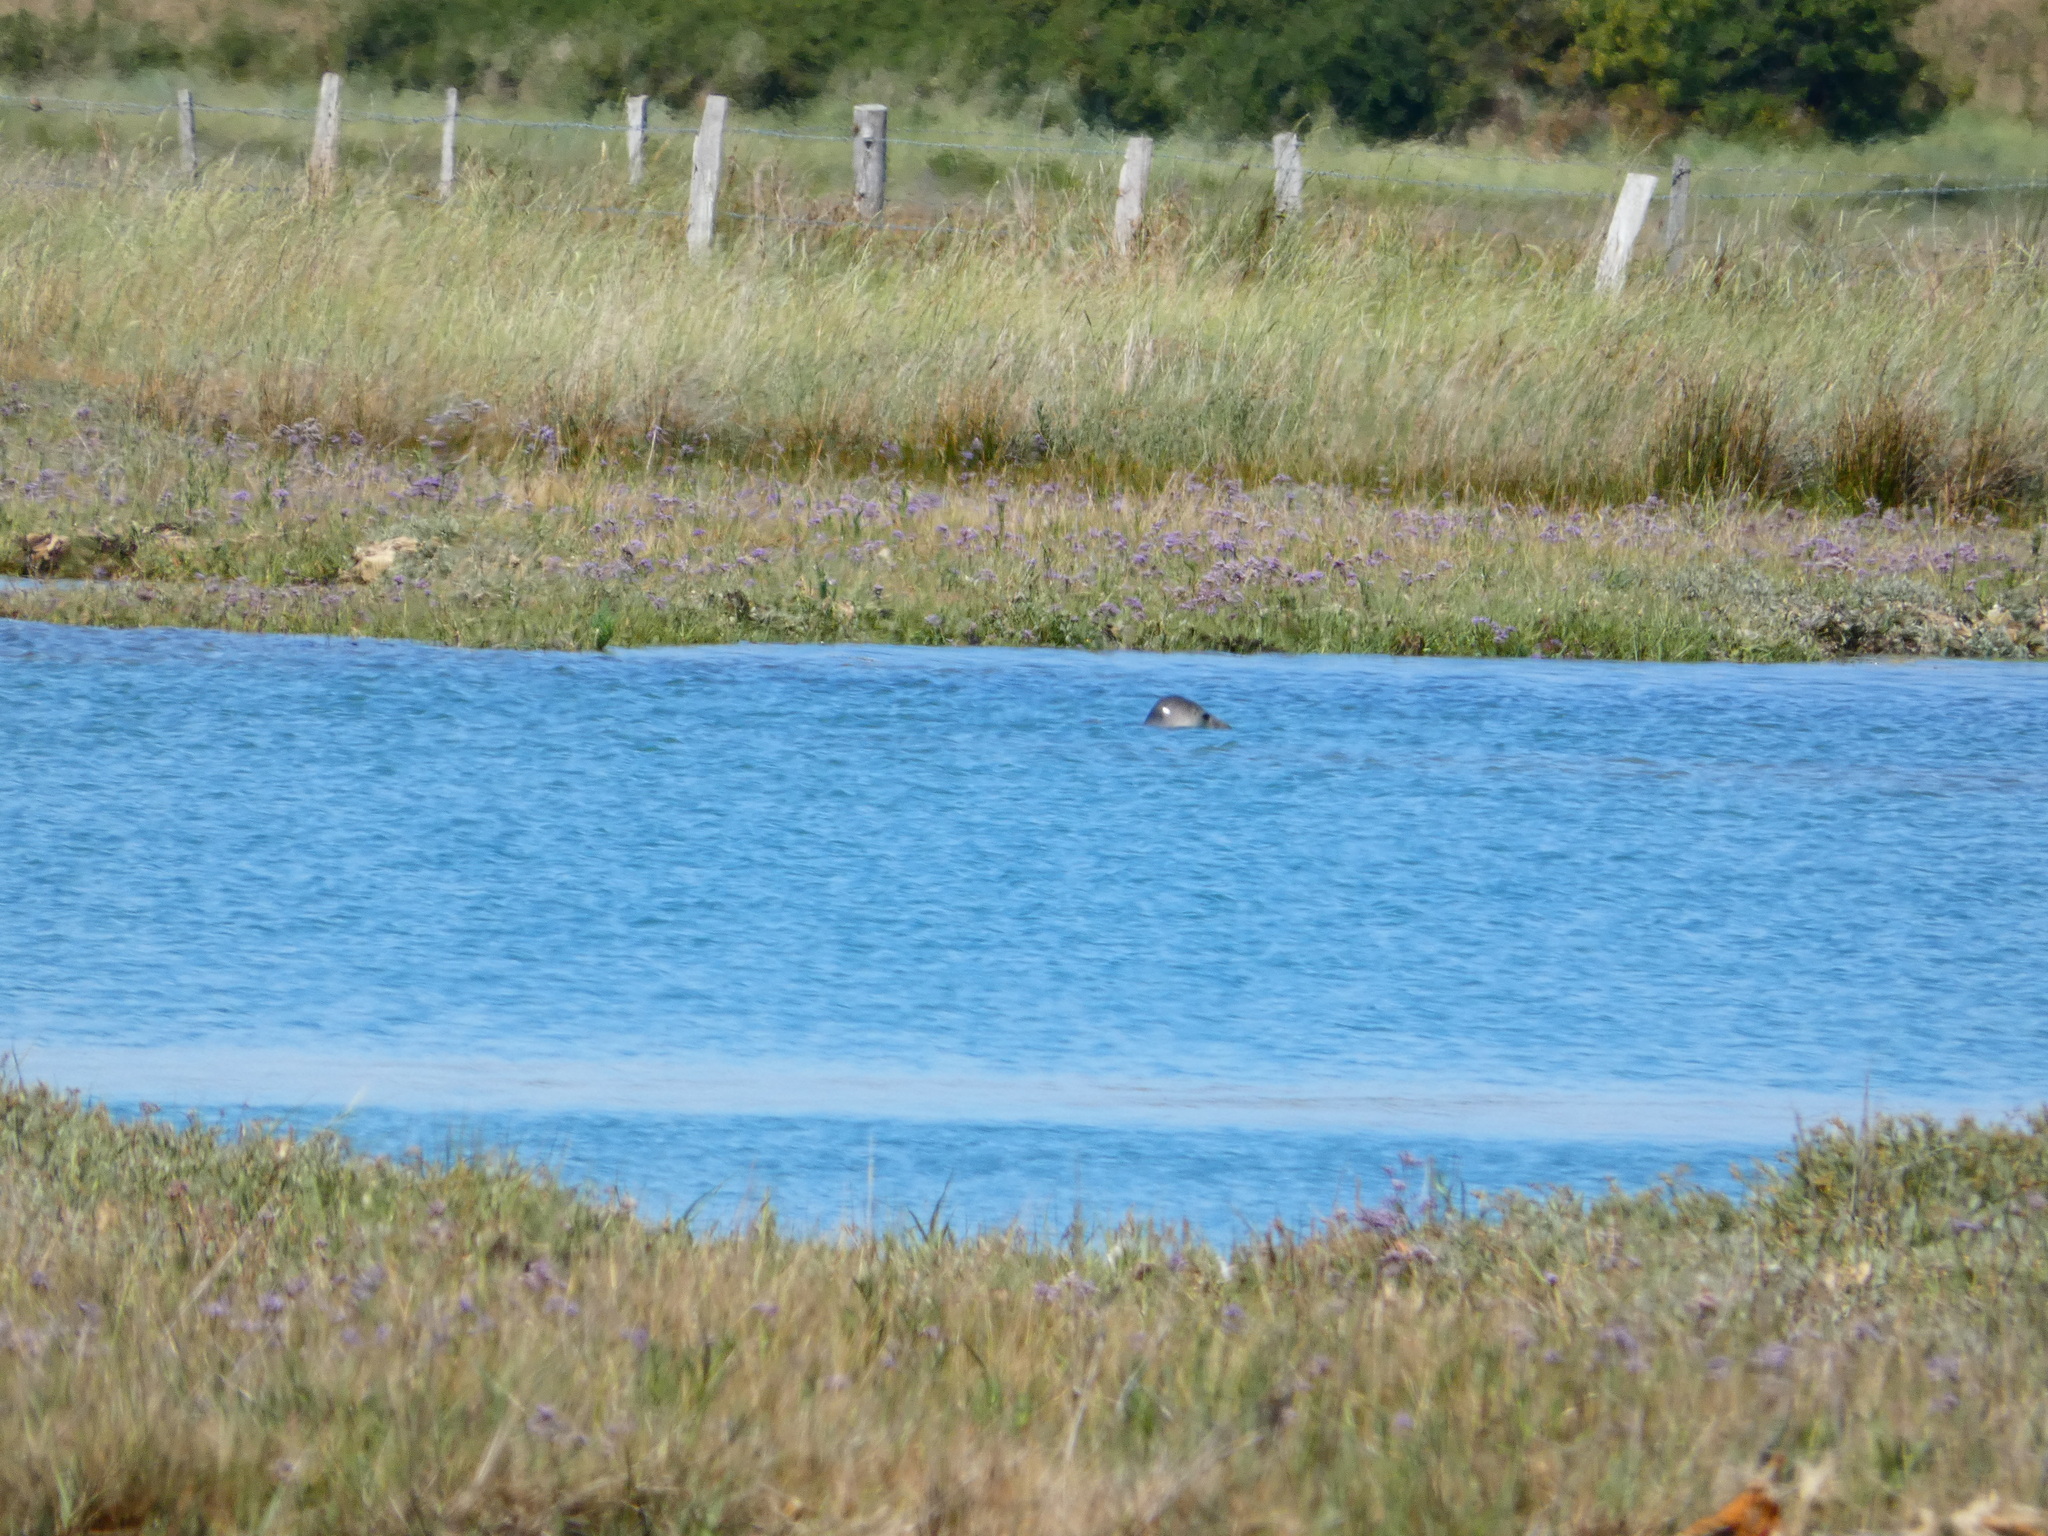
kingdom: Animalia
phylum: Chordata
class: Mammalia
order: Carnivora
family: Phocidae
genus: Halichoerus
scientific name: Halichoerus grypus
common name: Grey seal
